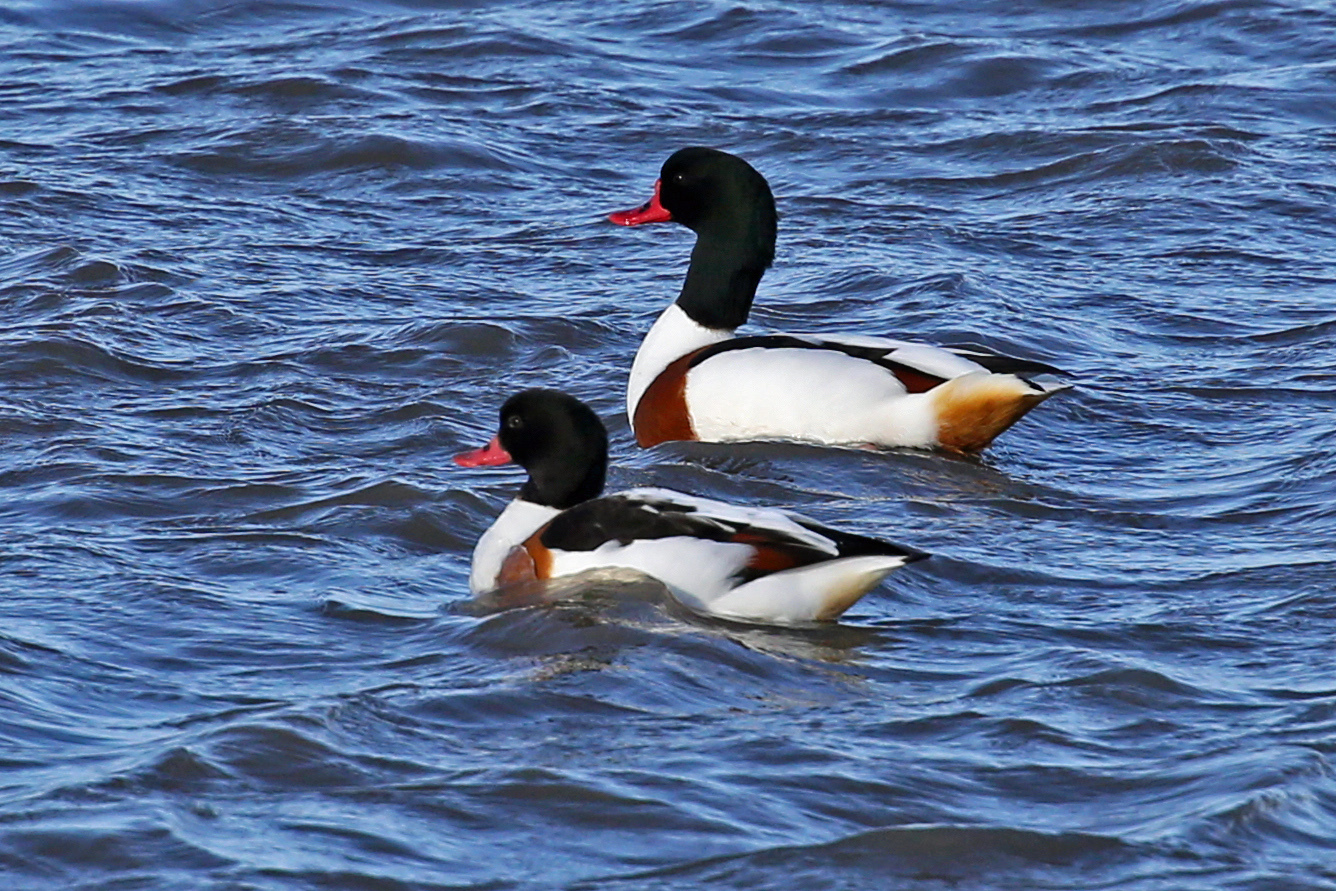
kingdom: Animalia
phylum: Chordata
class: Aves
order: Anseriformes
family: Anatidae
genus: Tadorna
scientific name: Tadorna tadorna
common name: Common shelduck
